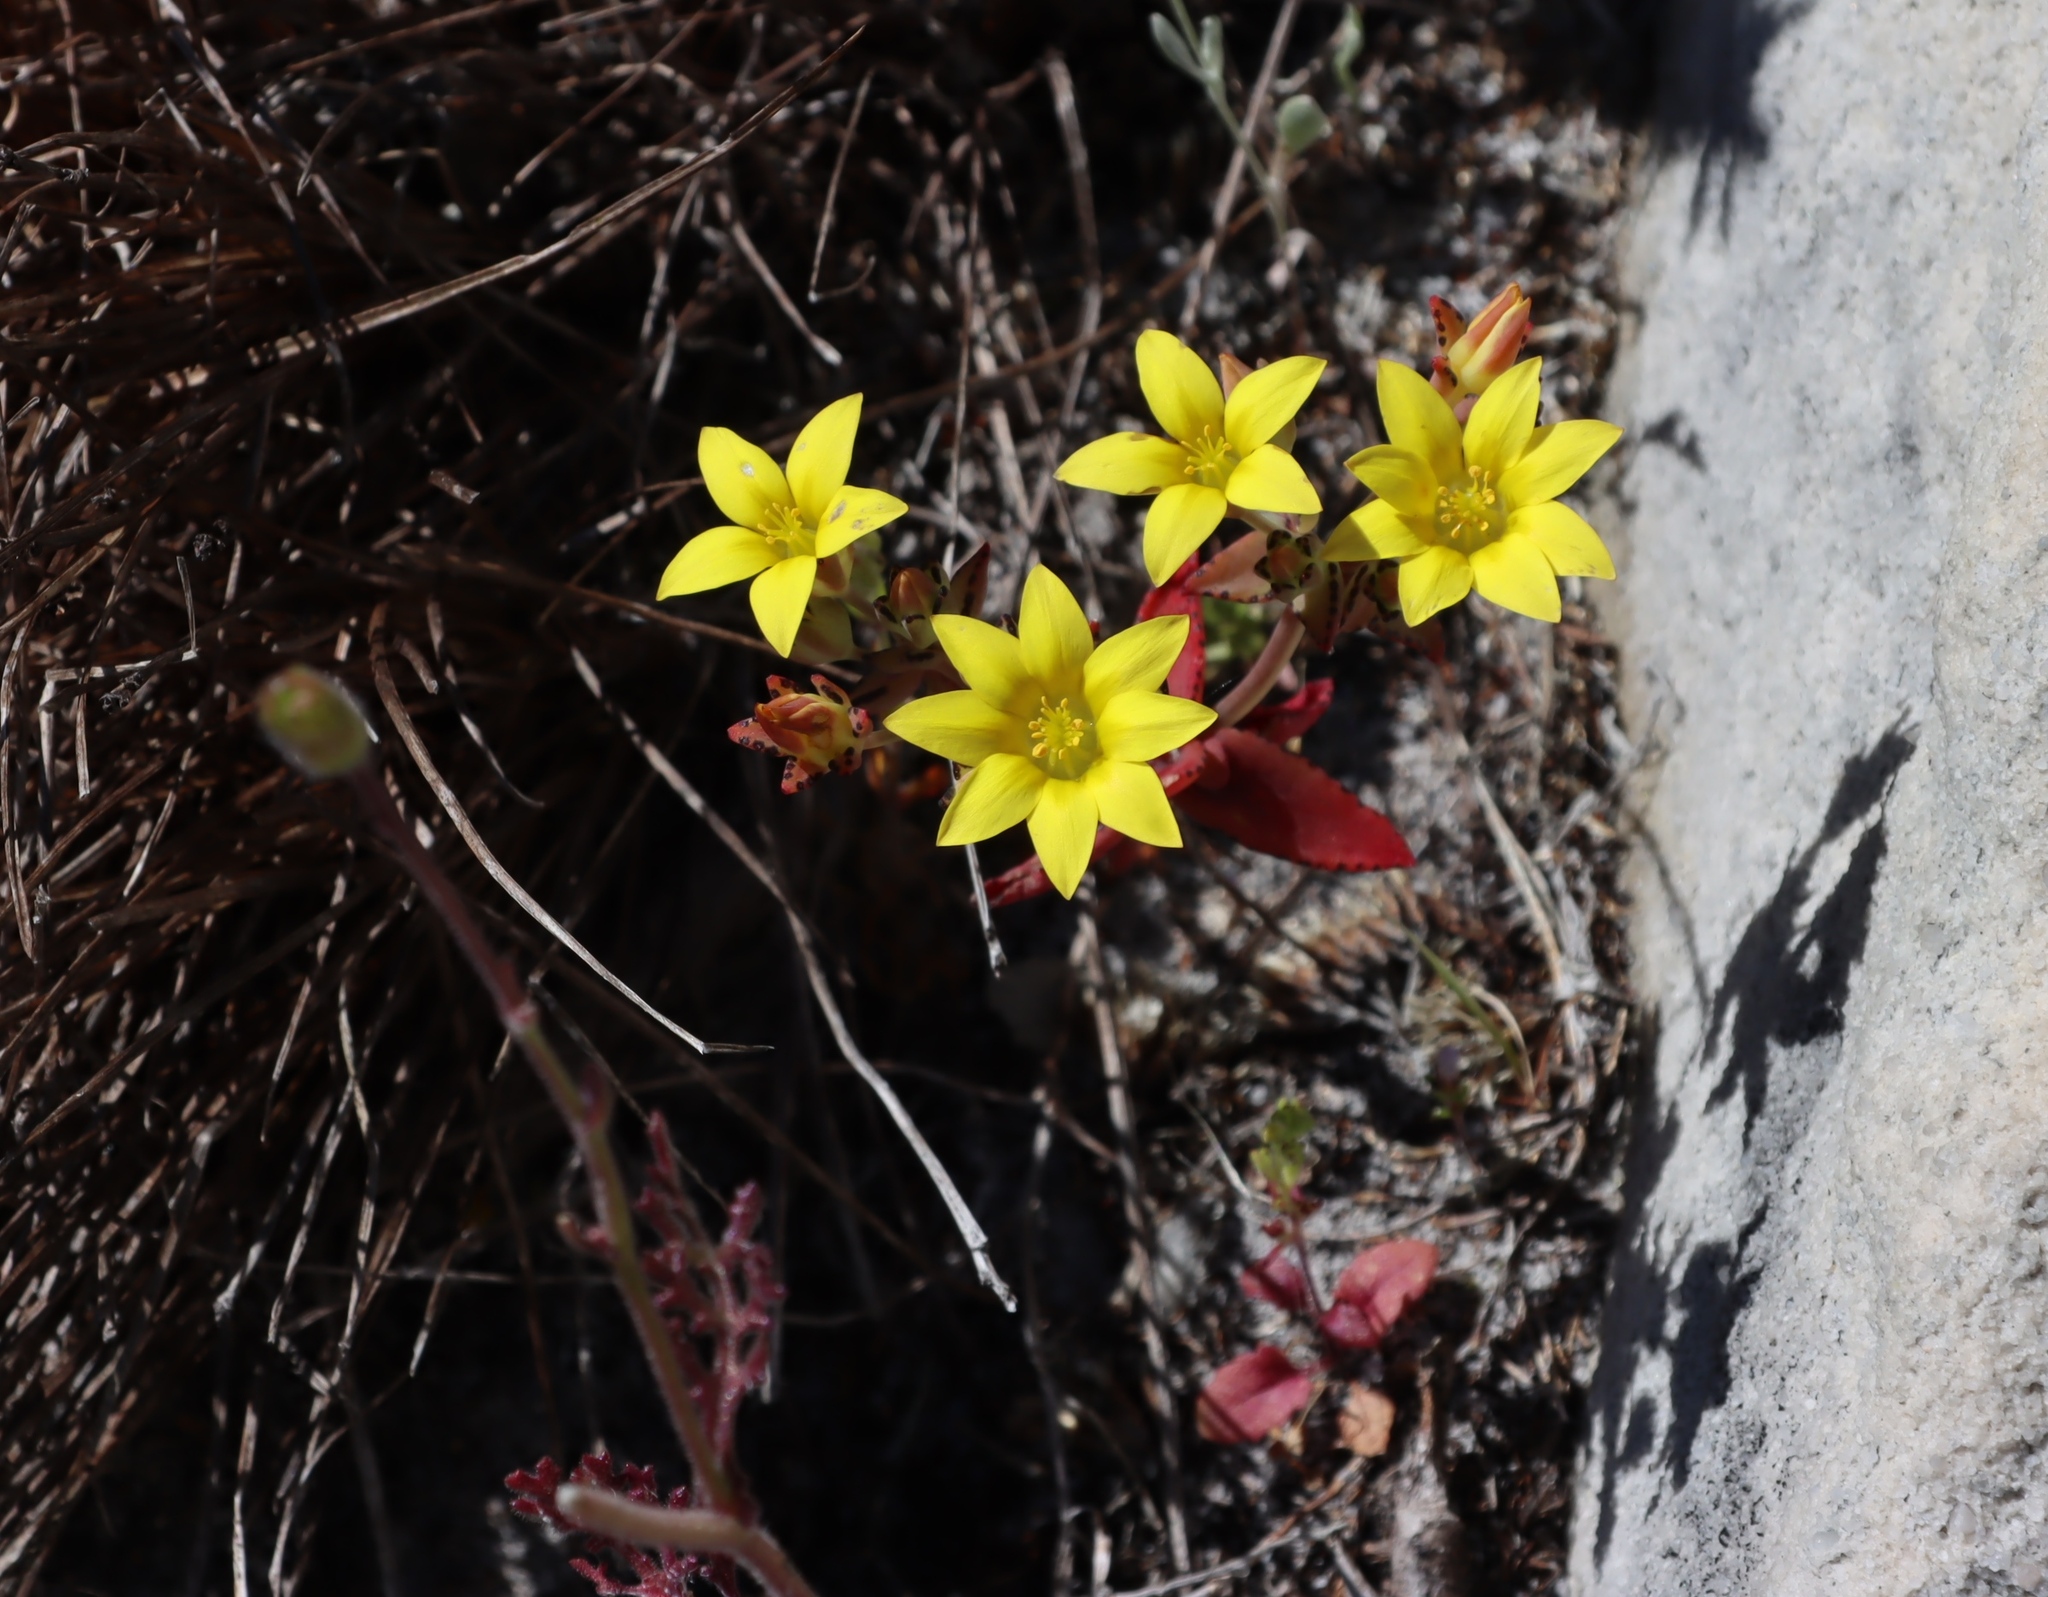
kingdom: Plantae
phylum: Tracheophyta
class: Magnoliopsida
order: Saxifragales
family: Crassulaceae
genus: Crassula
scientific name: Crassula dichotoma
